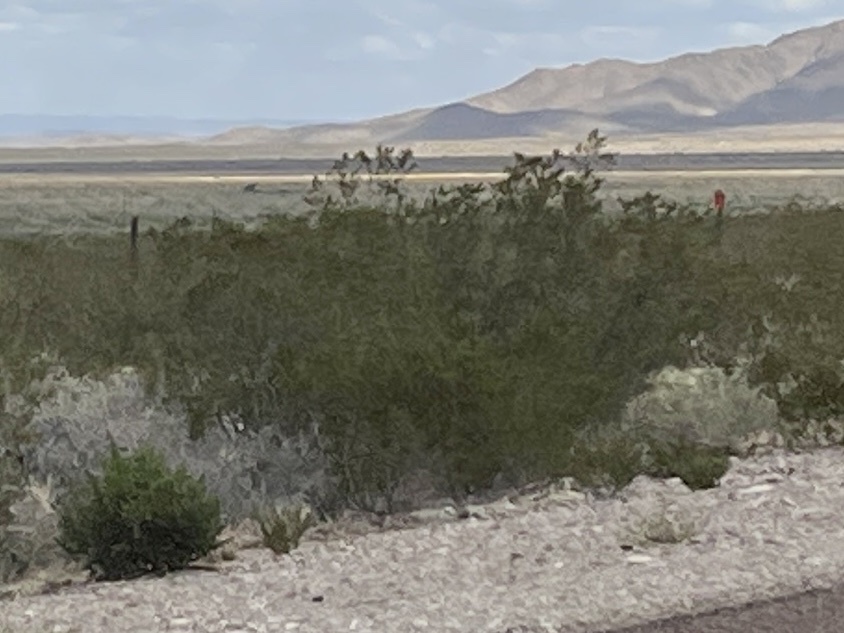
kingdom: Plantae
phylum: Tracheophyta
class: Magnoliopsida
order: Zygophyllales
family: Zygophyllaceae
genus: Larrea
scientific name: Larrea tridentata
